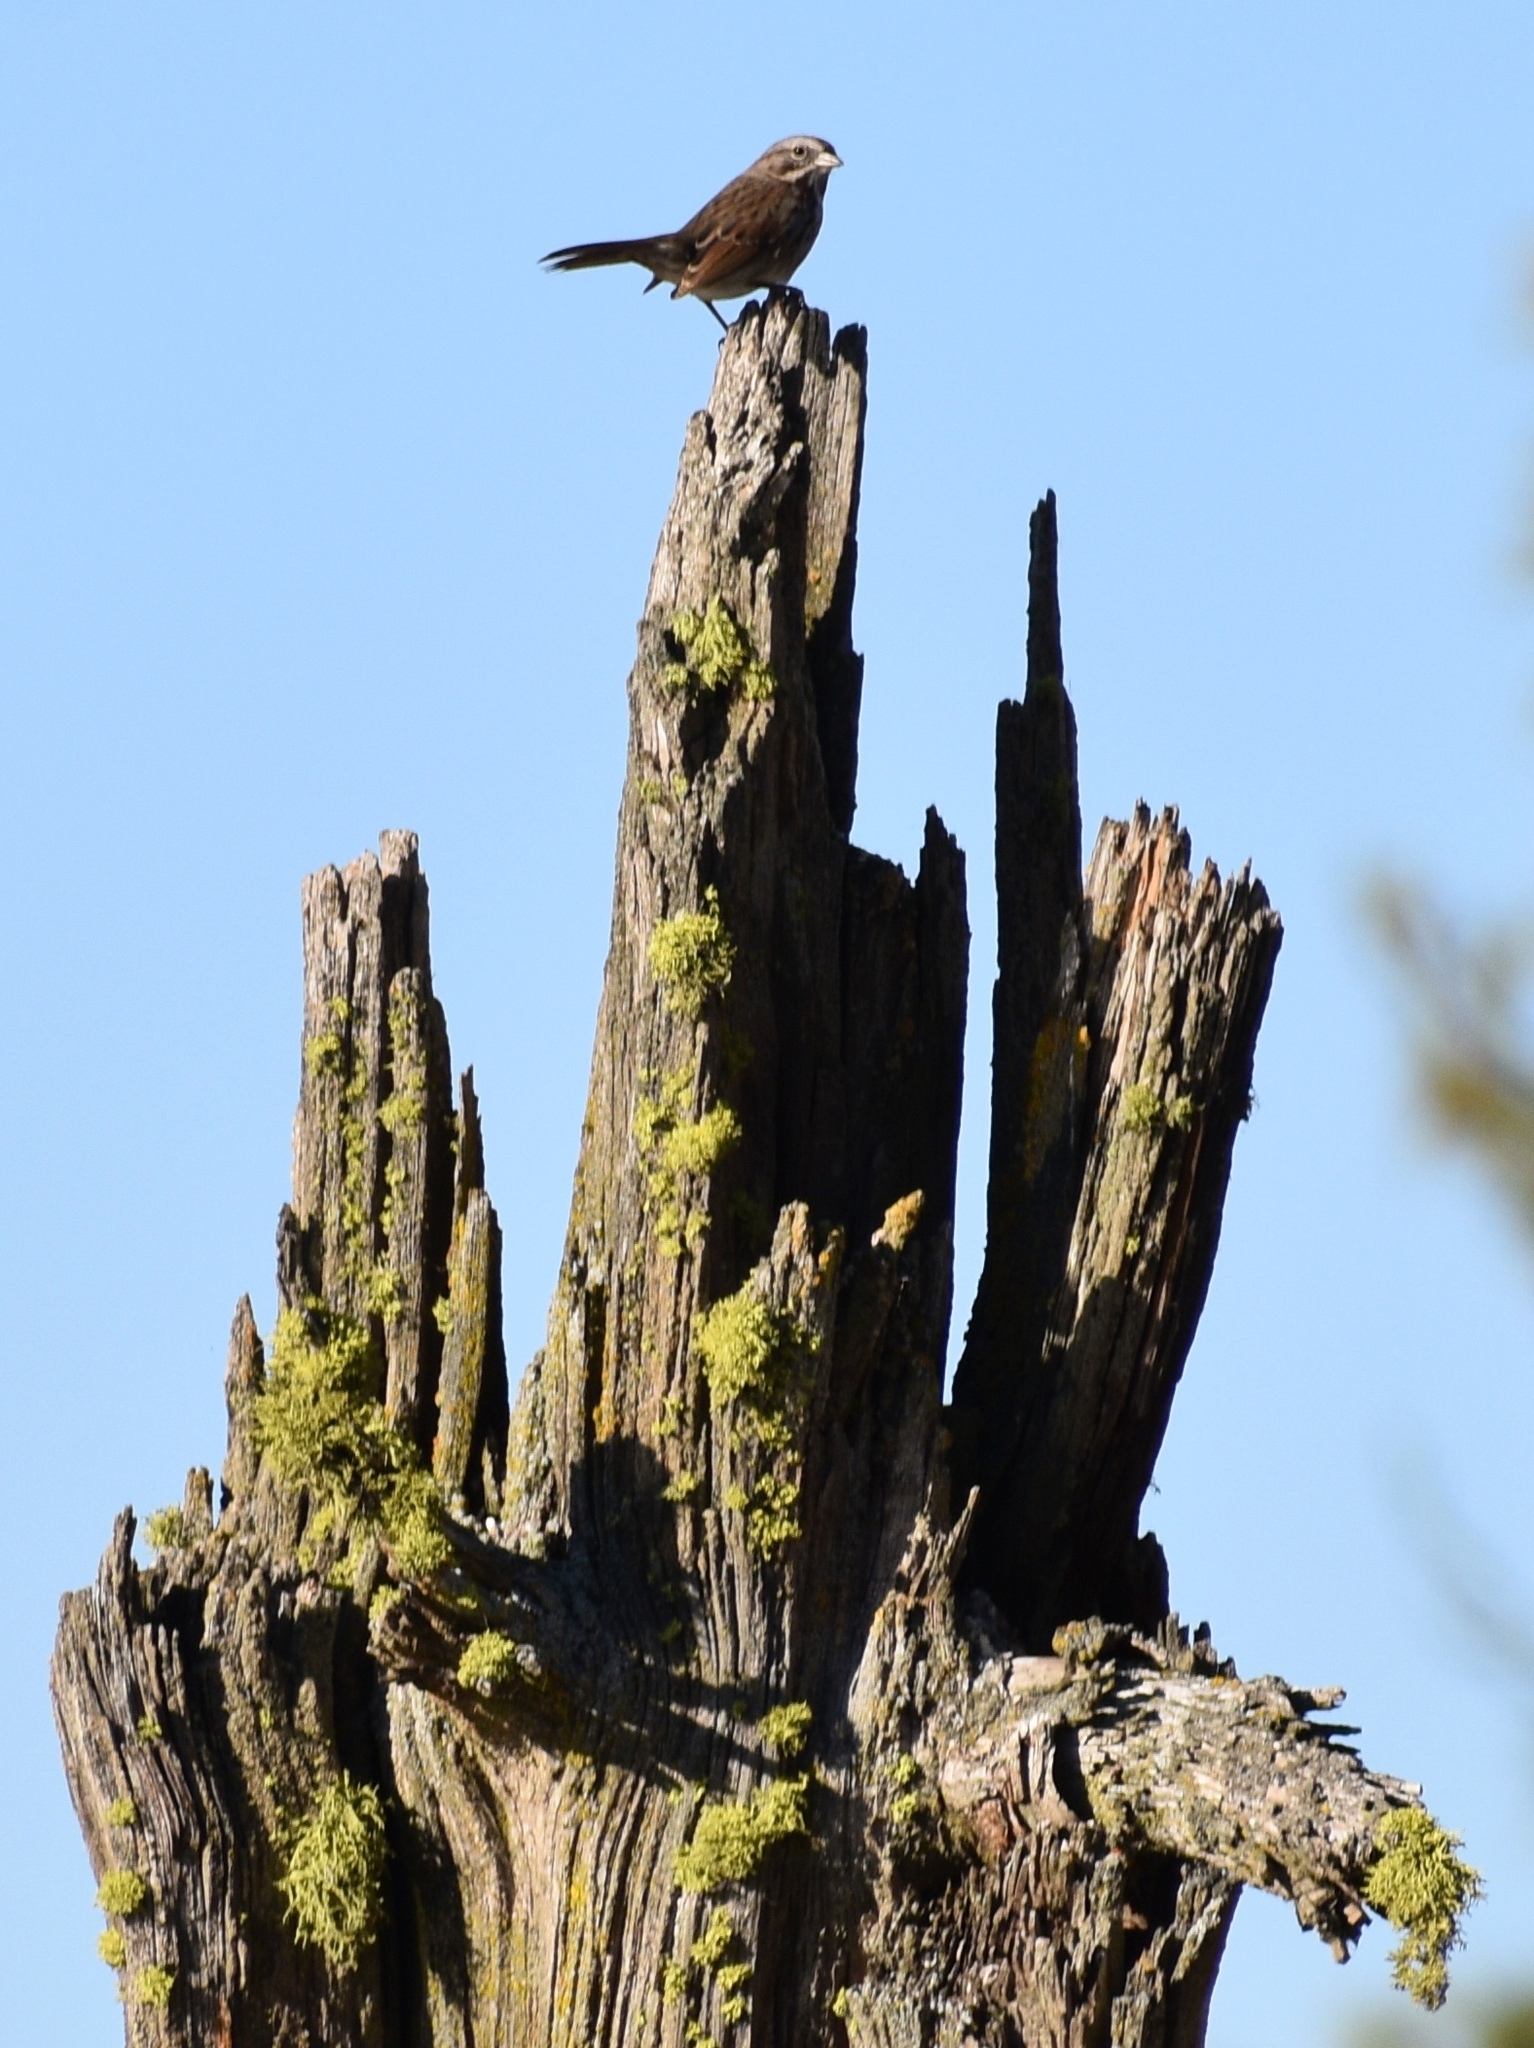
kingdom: Animalia
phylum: Chordata
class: Aves
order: Passeriformes
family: Passerellidae
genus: Melospiza
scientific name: Melospiza melodia
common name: Song sparrow
